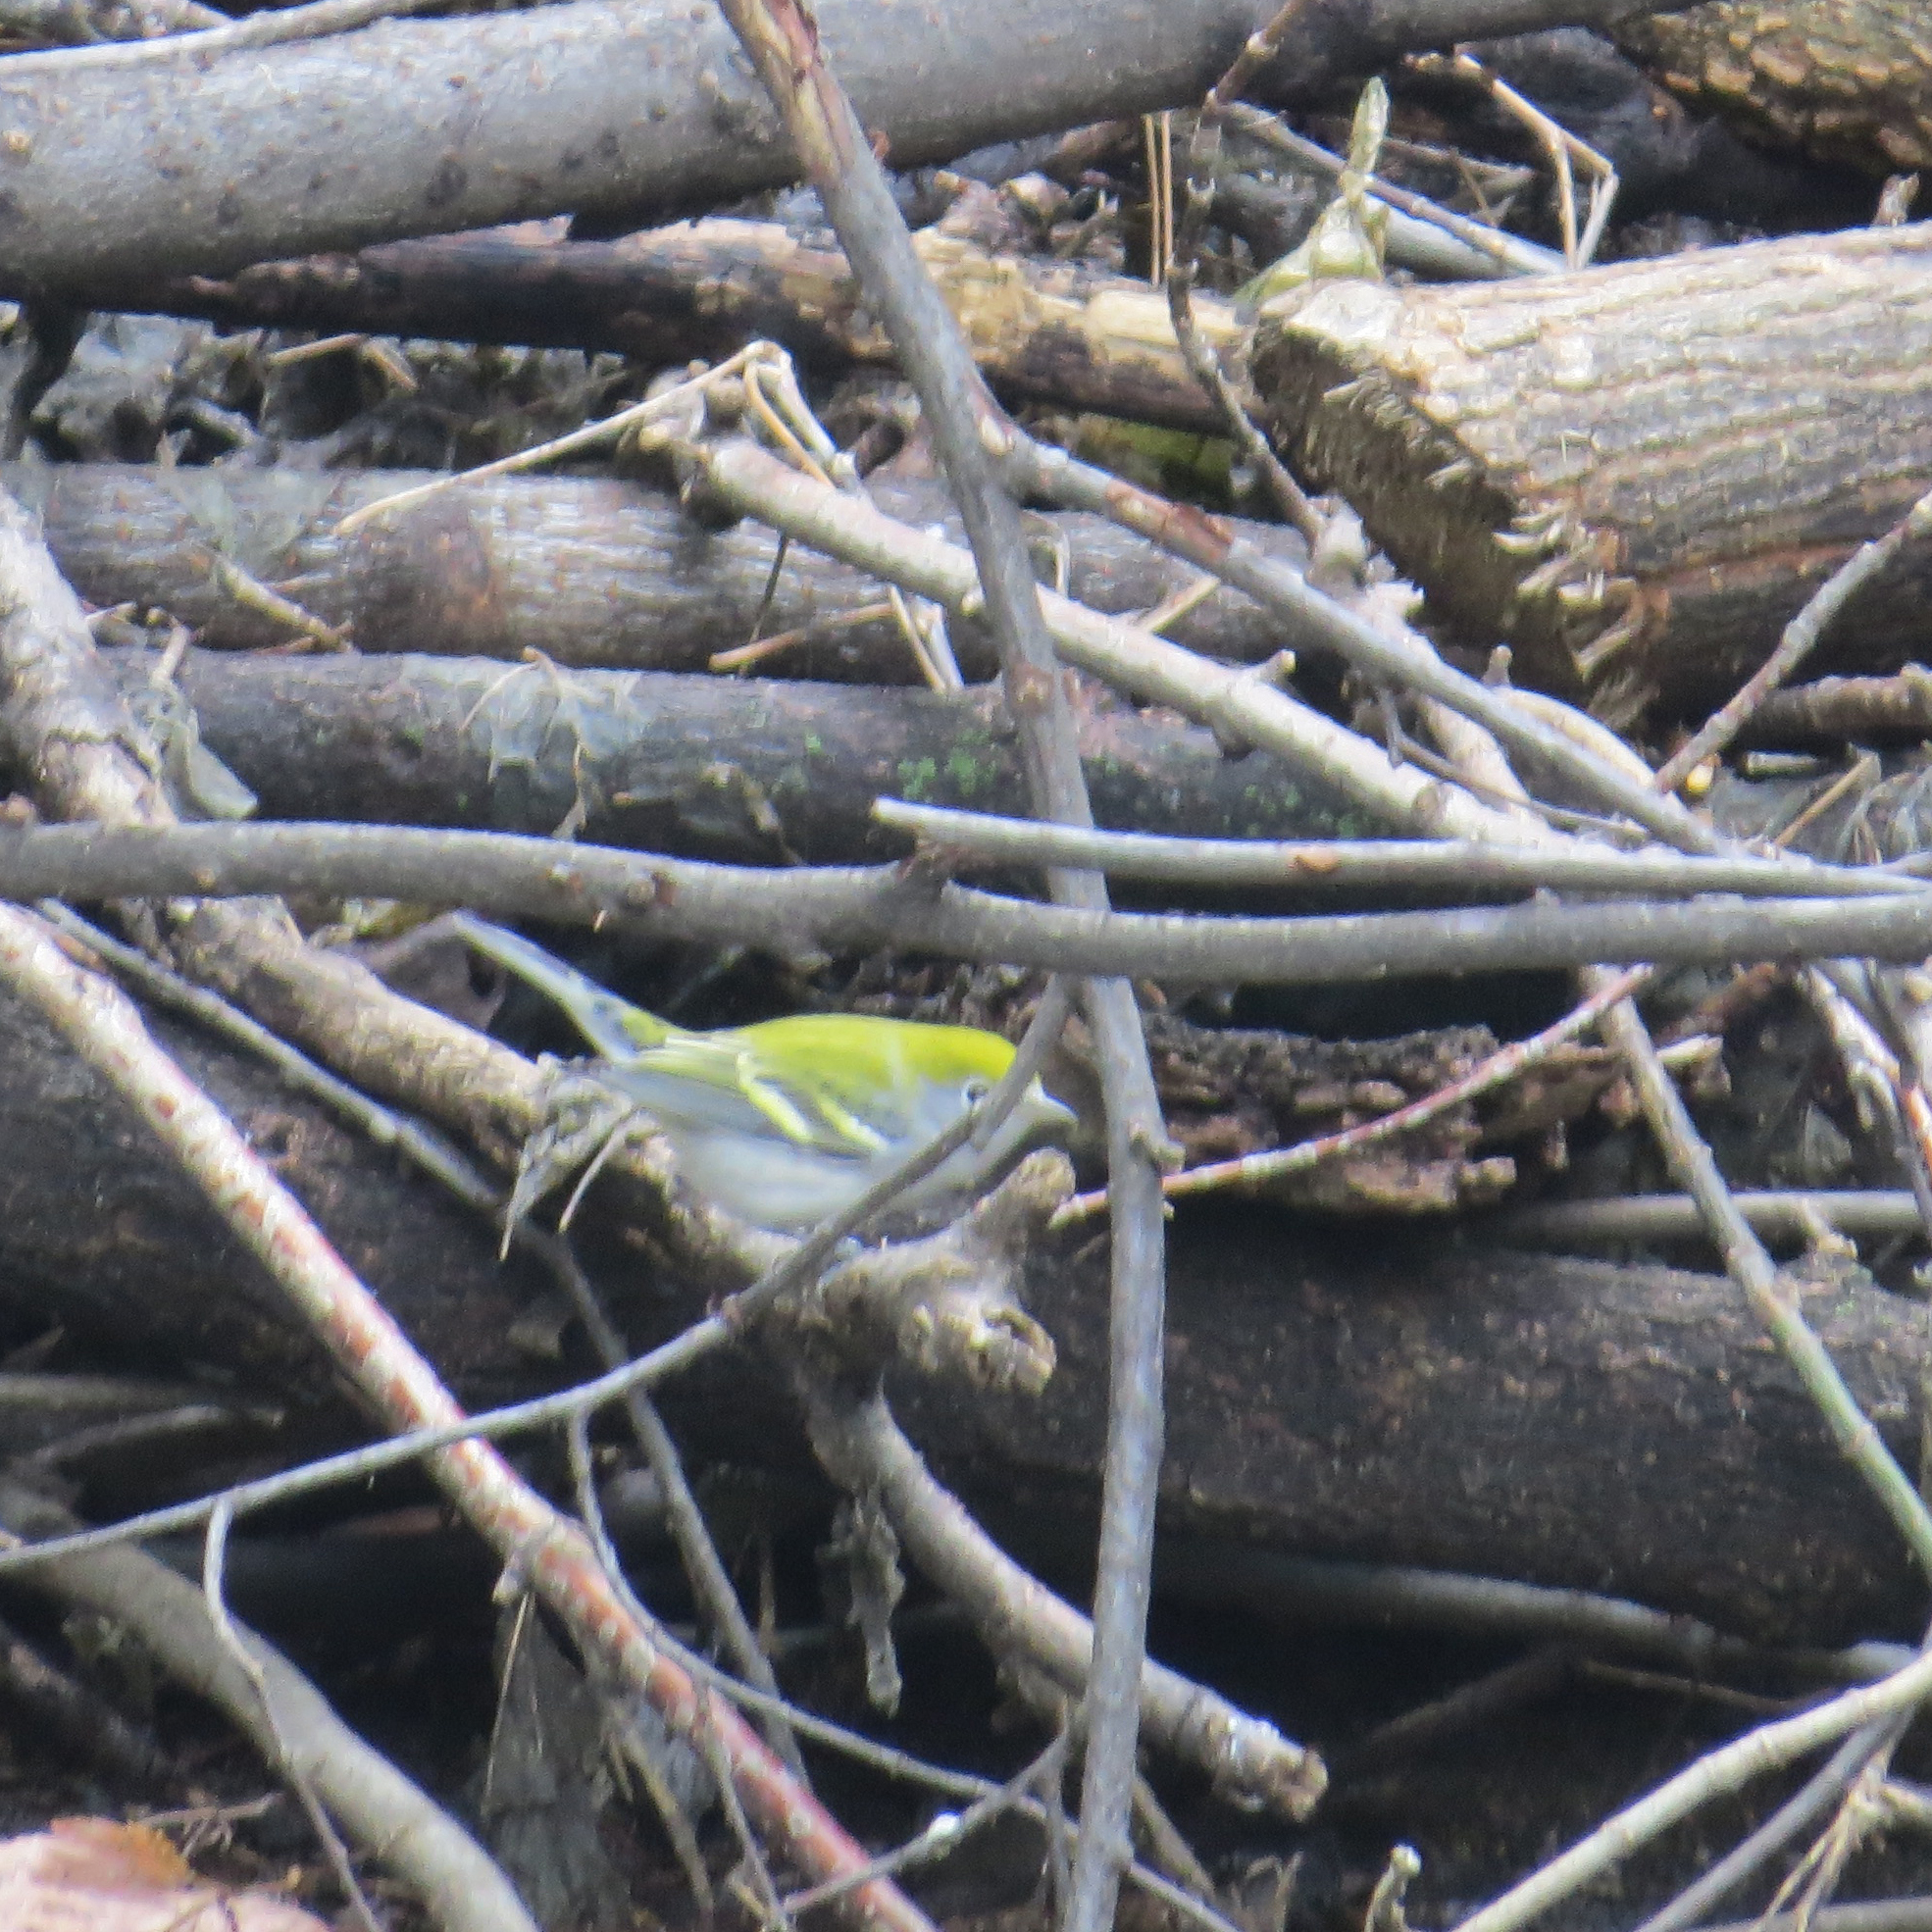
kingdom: Animalia
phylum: Chordata
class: Aves
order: Passeriformes
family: Parulidae
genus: Setophaga
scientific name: Setophaga pensylvanica
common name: Chestnut-sided warbler
